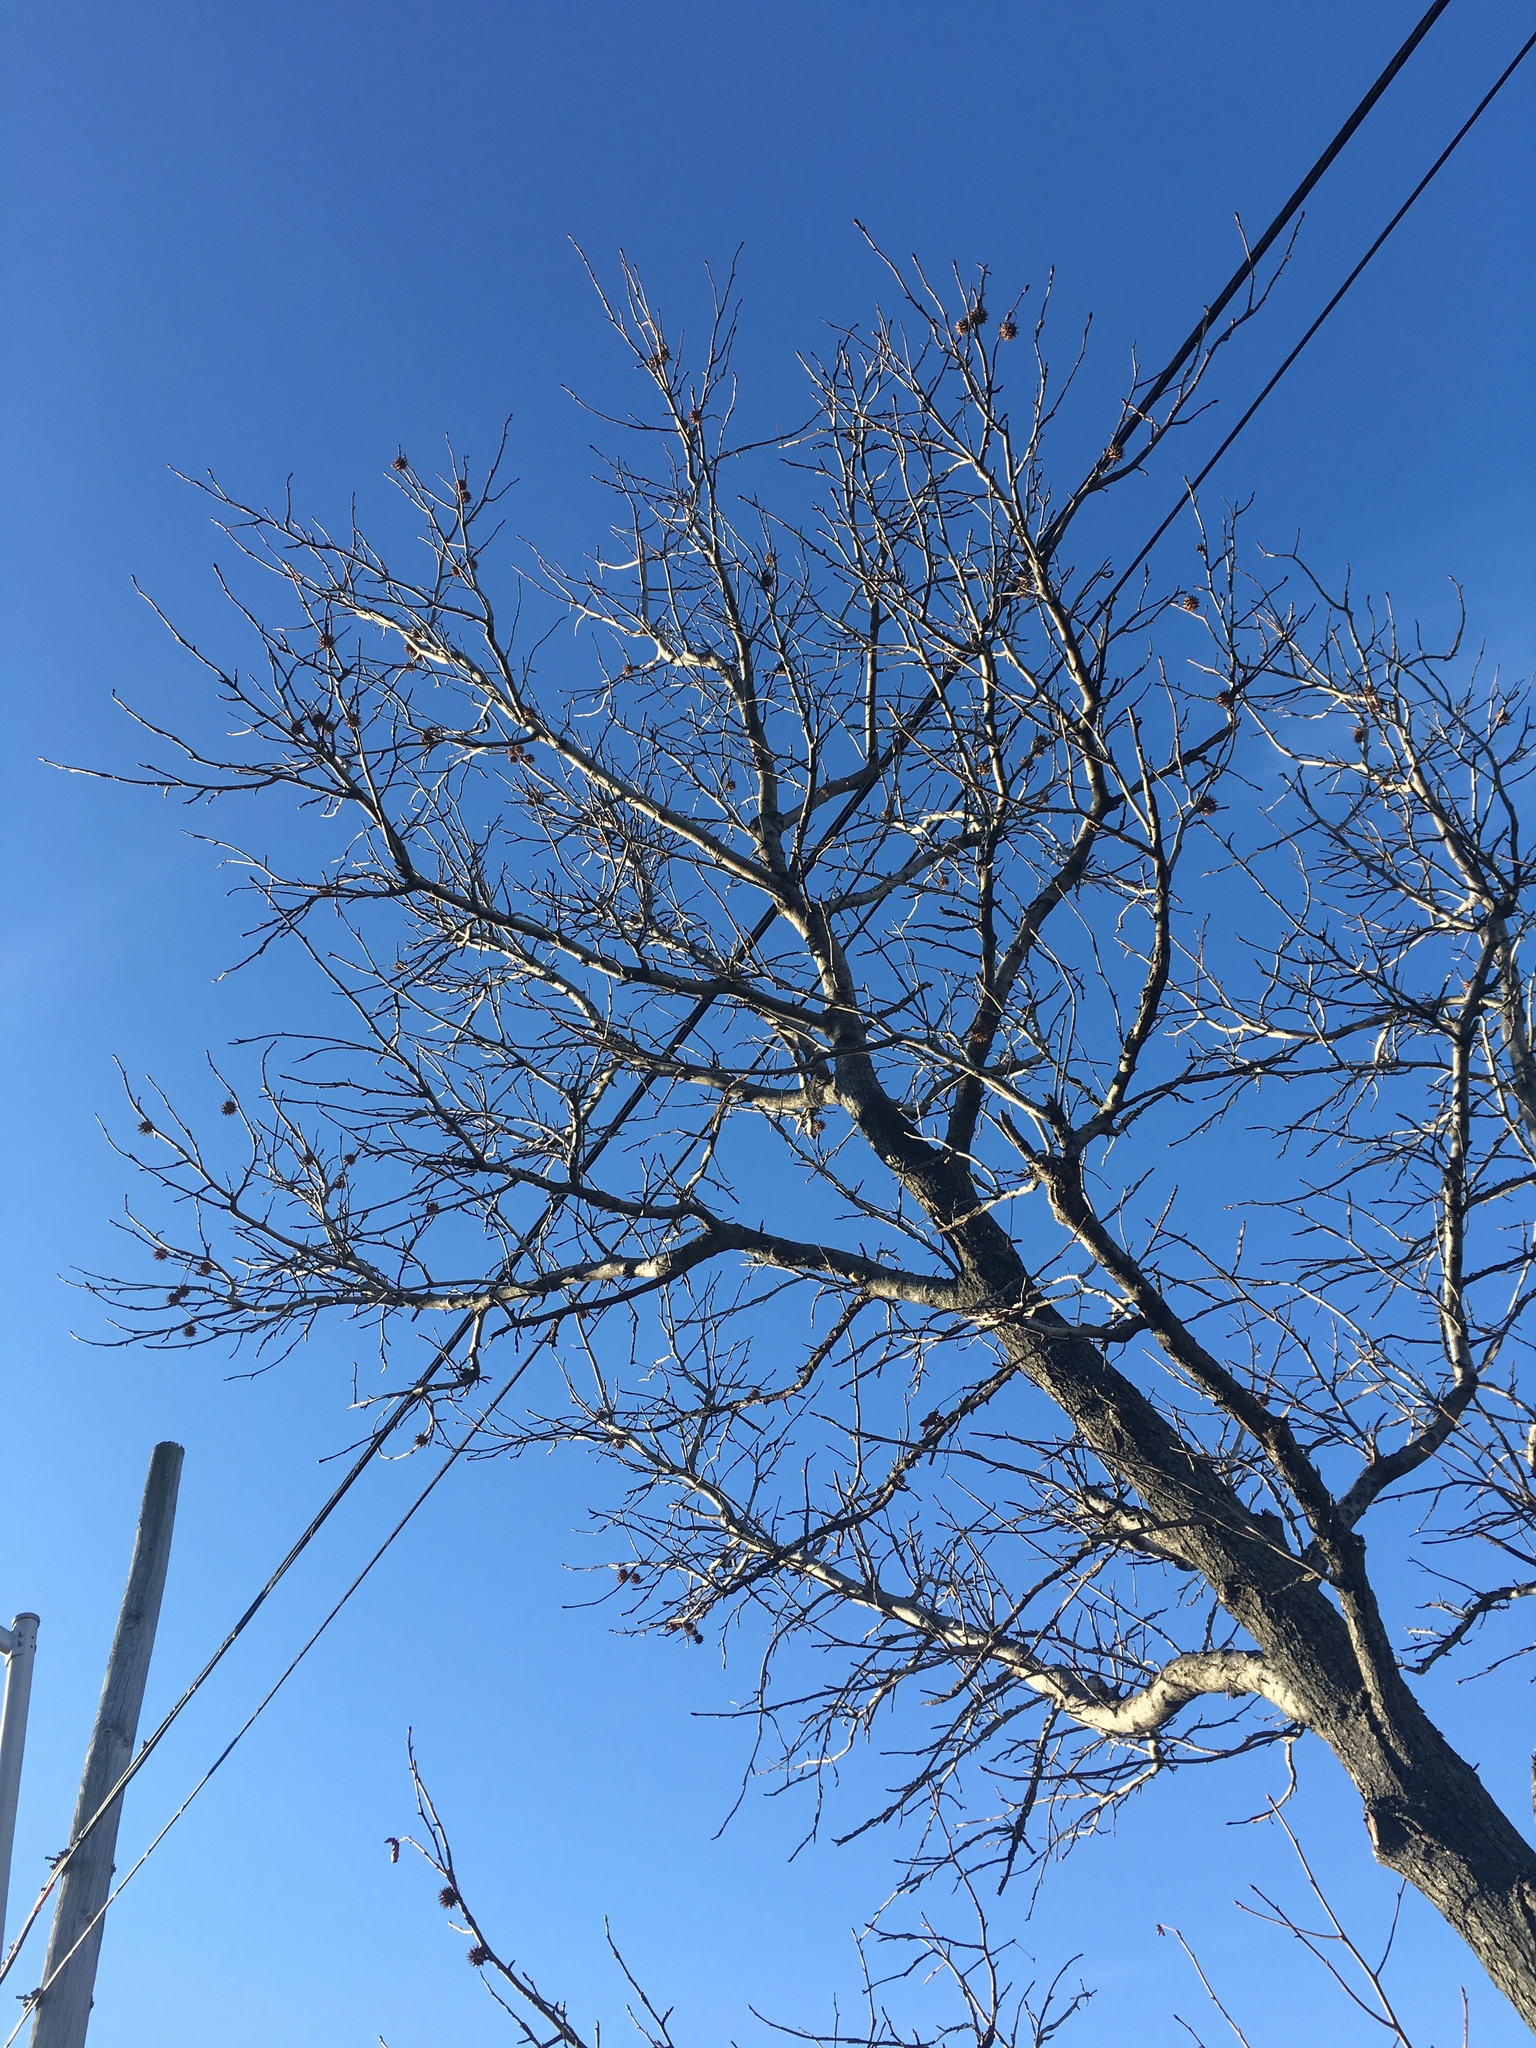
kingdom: Plantae
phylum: Tracheophyta
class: Magnoliopsida
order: Saxifragales
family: Altingiaceae
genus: Liquidambar
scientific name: Liquidambar styraciflua
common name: Sweet gum
